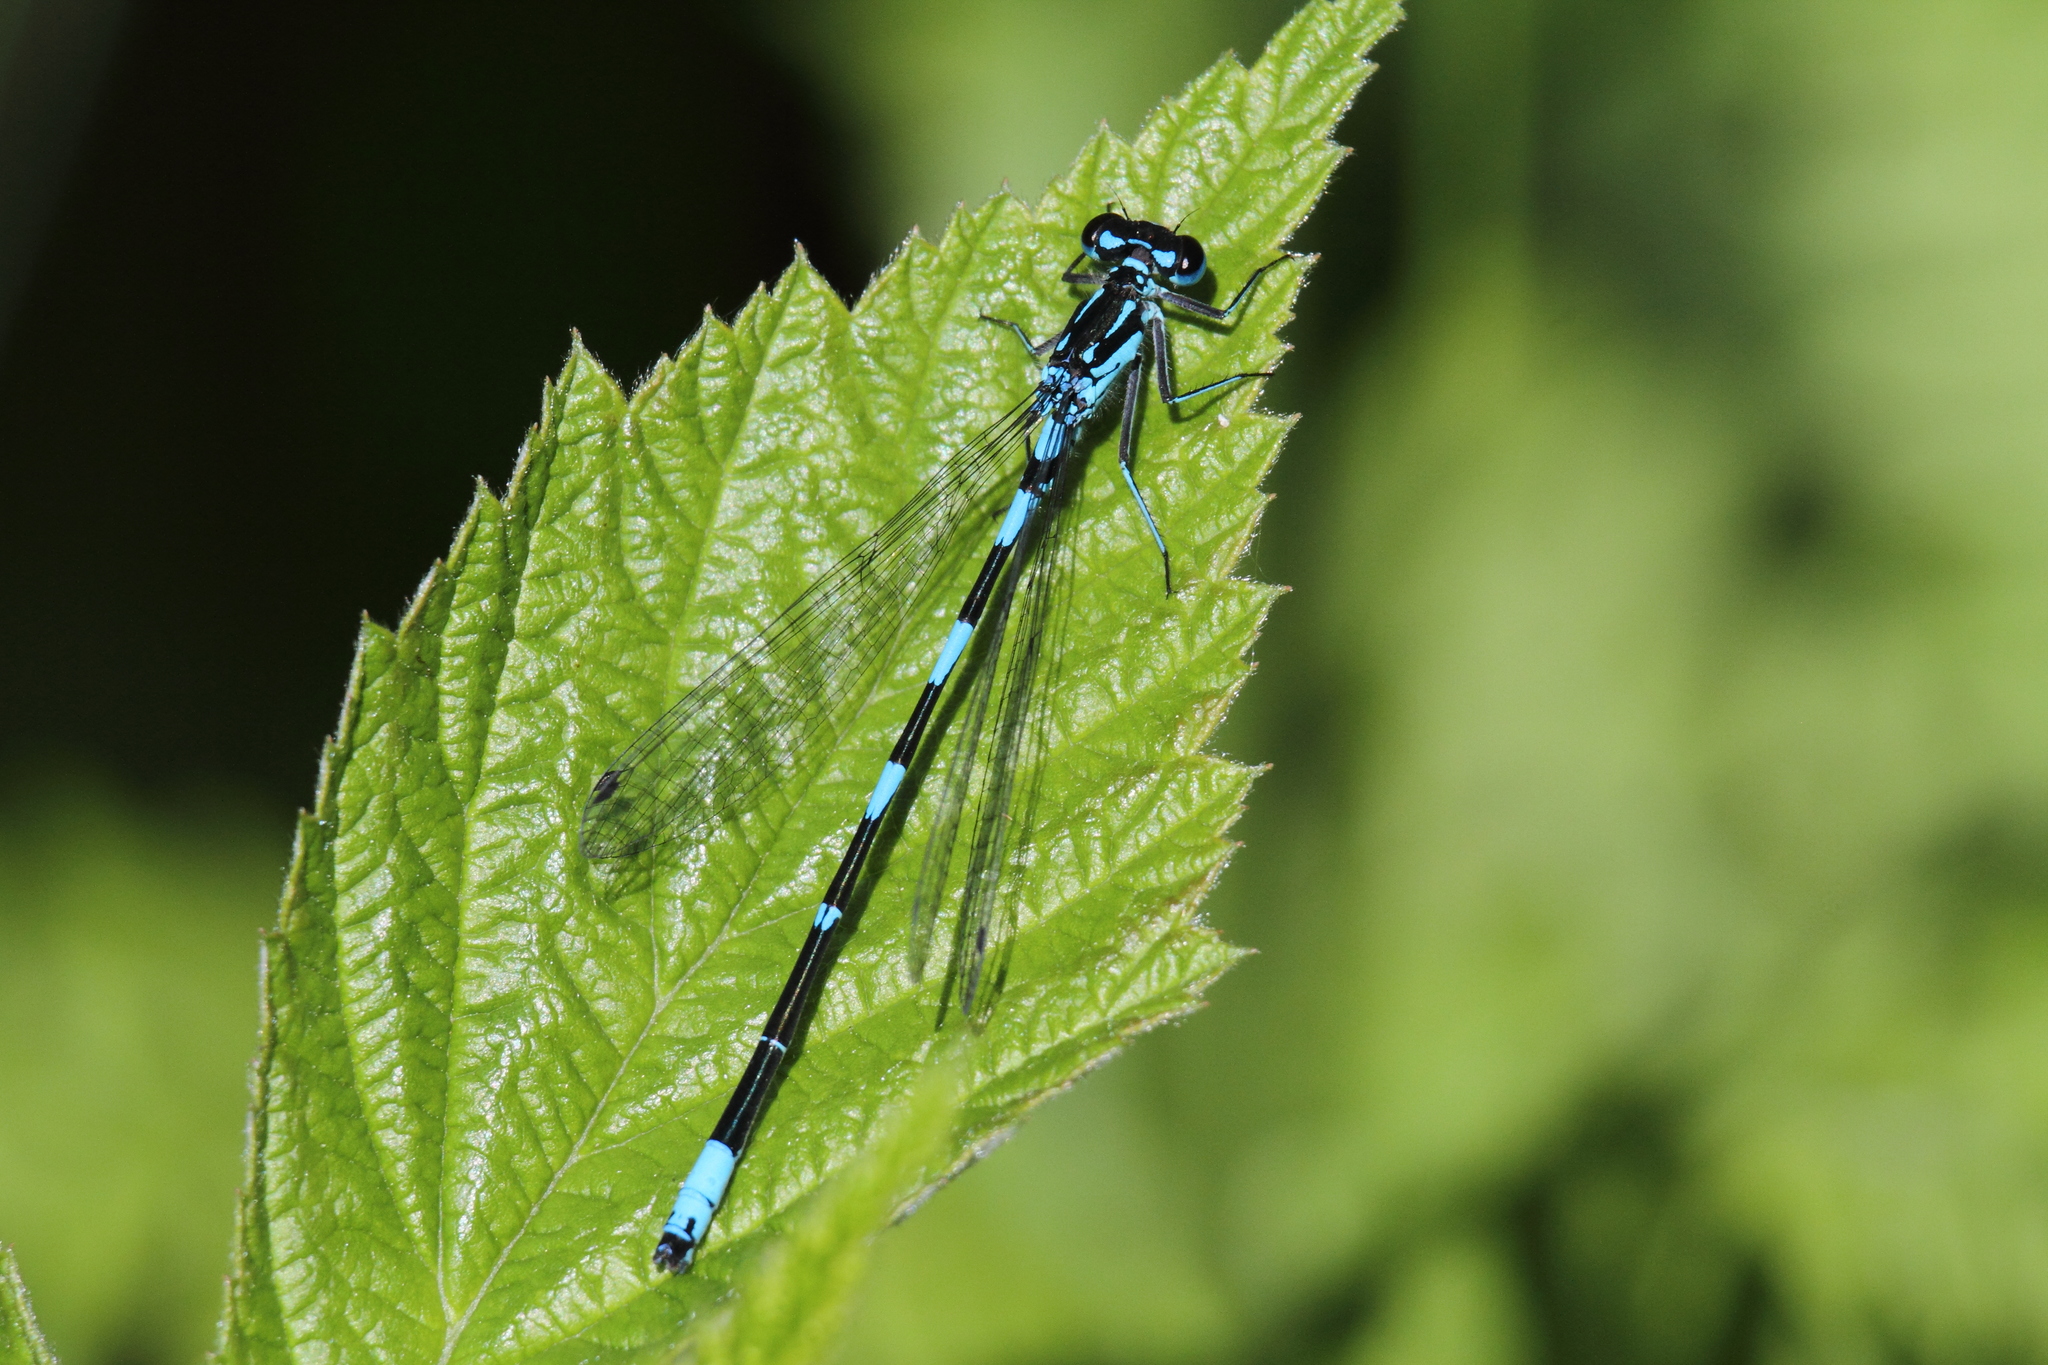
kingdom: Animalia
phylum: Arthropoda
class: Insecta
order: Odonata
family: Coenagrionidae
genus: Coenagrion
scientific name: Coenagrion pulchellum
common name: Variable bluet
